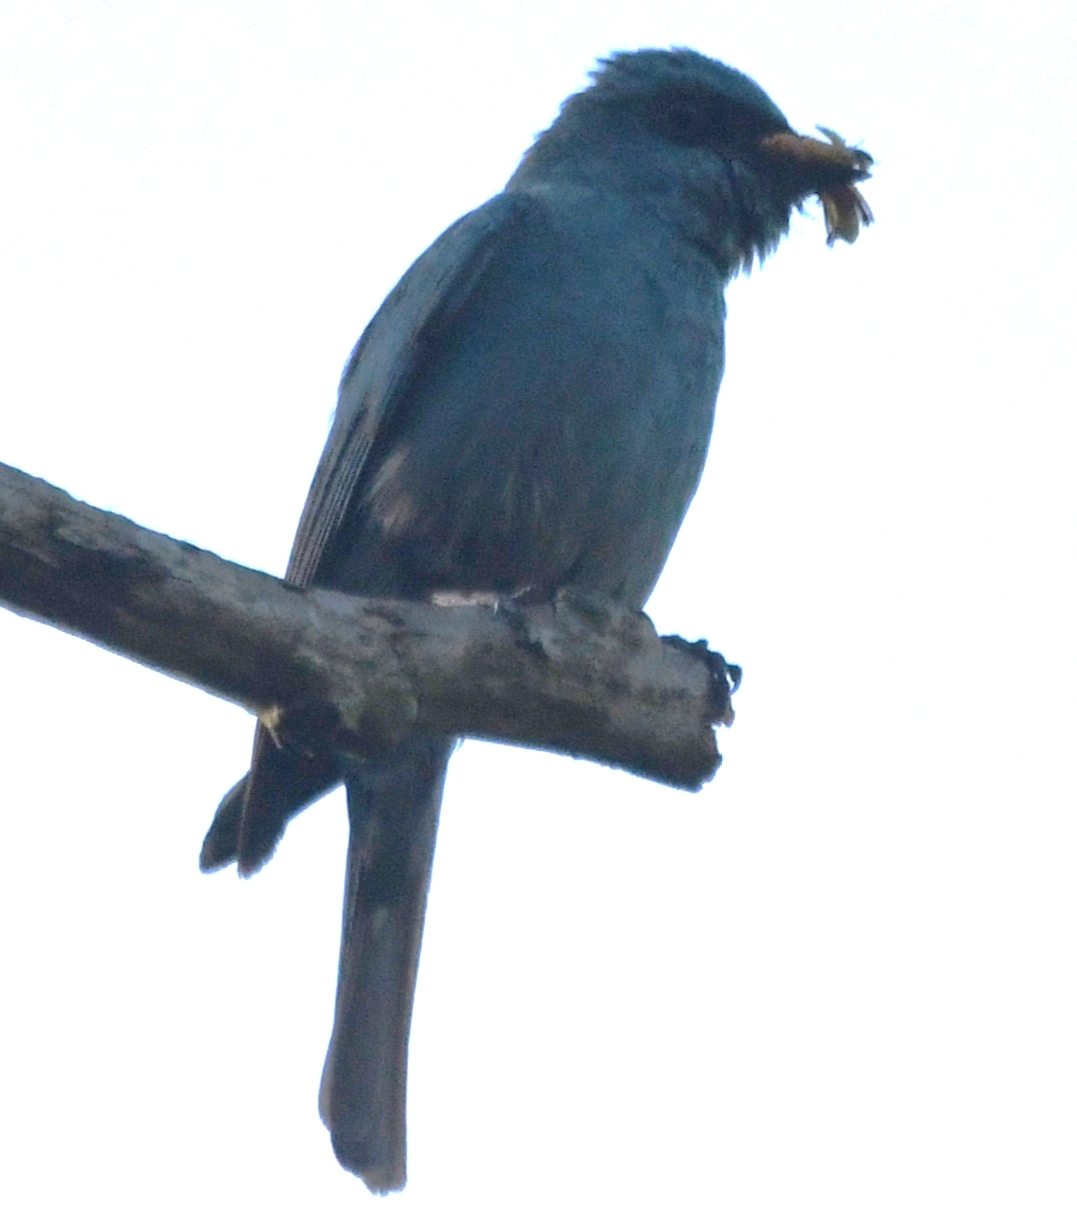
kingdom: Animalia
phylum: Chordata
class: Aves
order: Passeriformes
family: Muscicapidae
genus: Eumyias
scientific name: Eumyias thalassinus
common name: Verditer flycatcher
